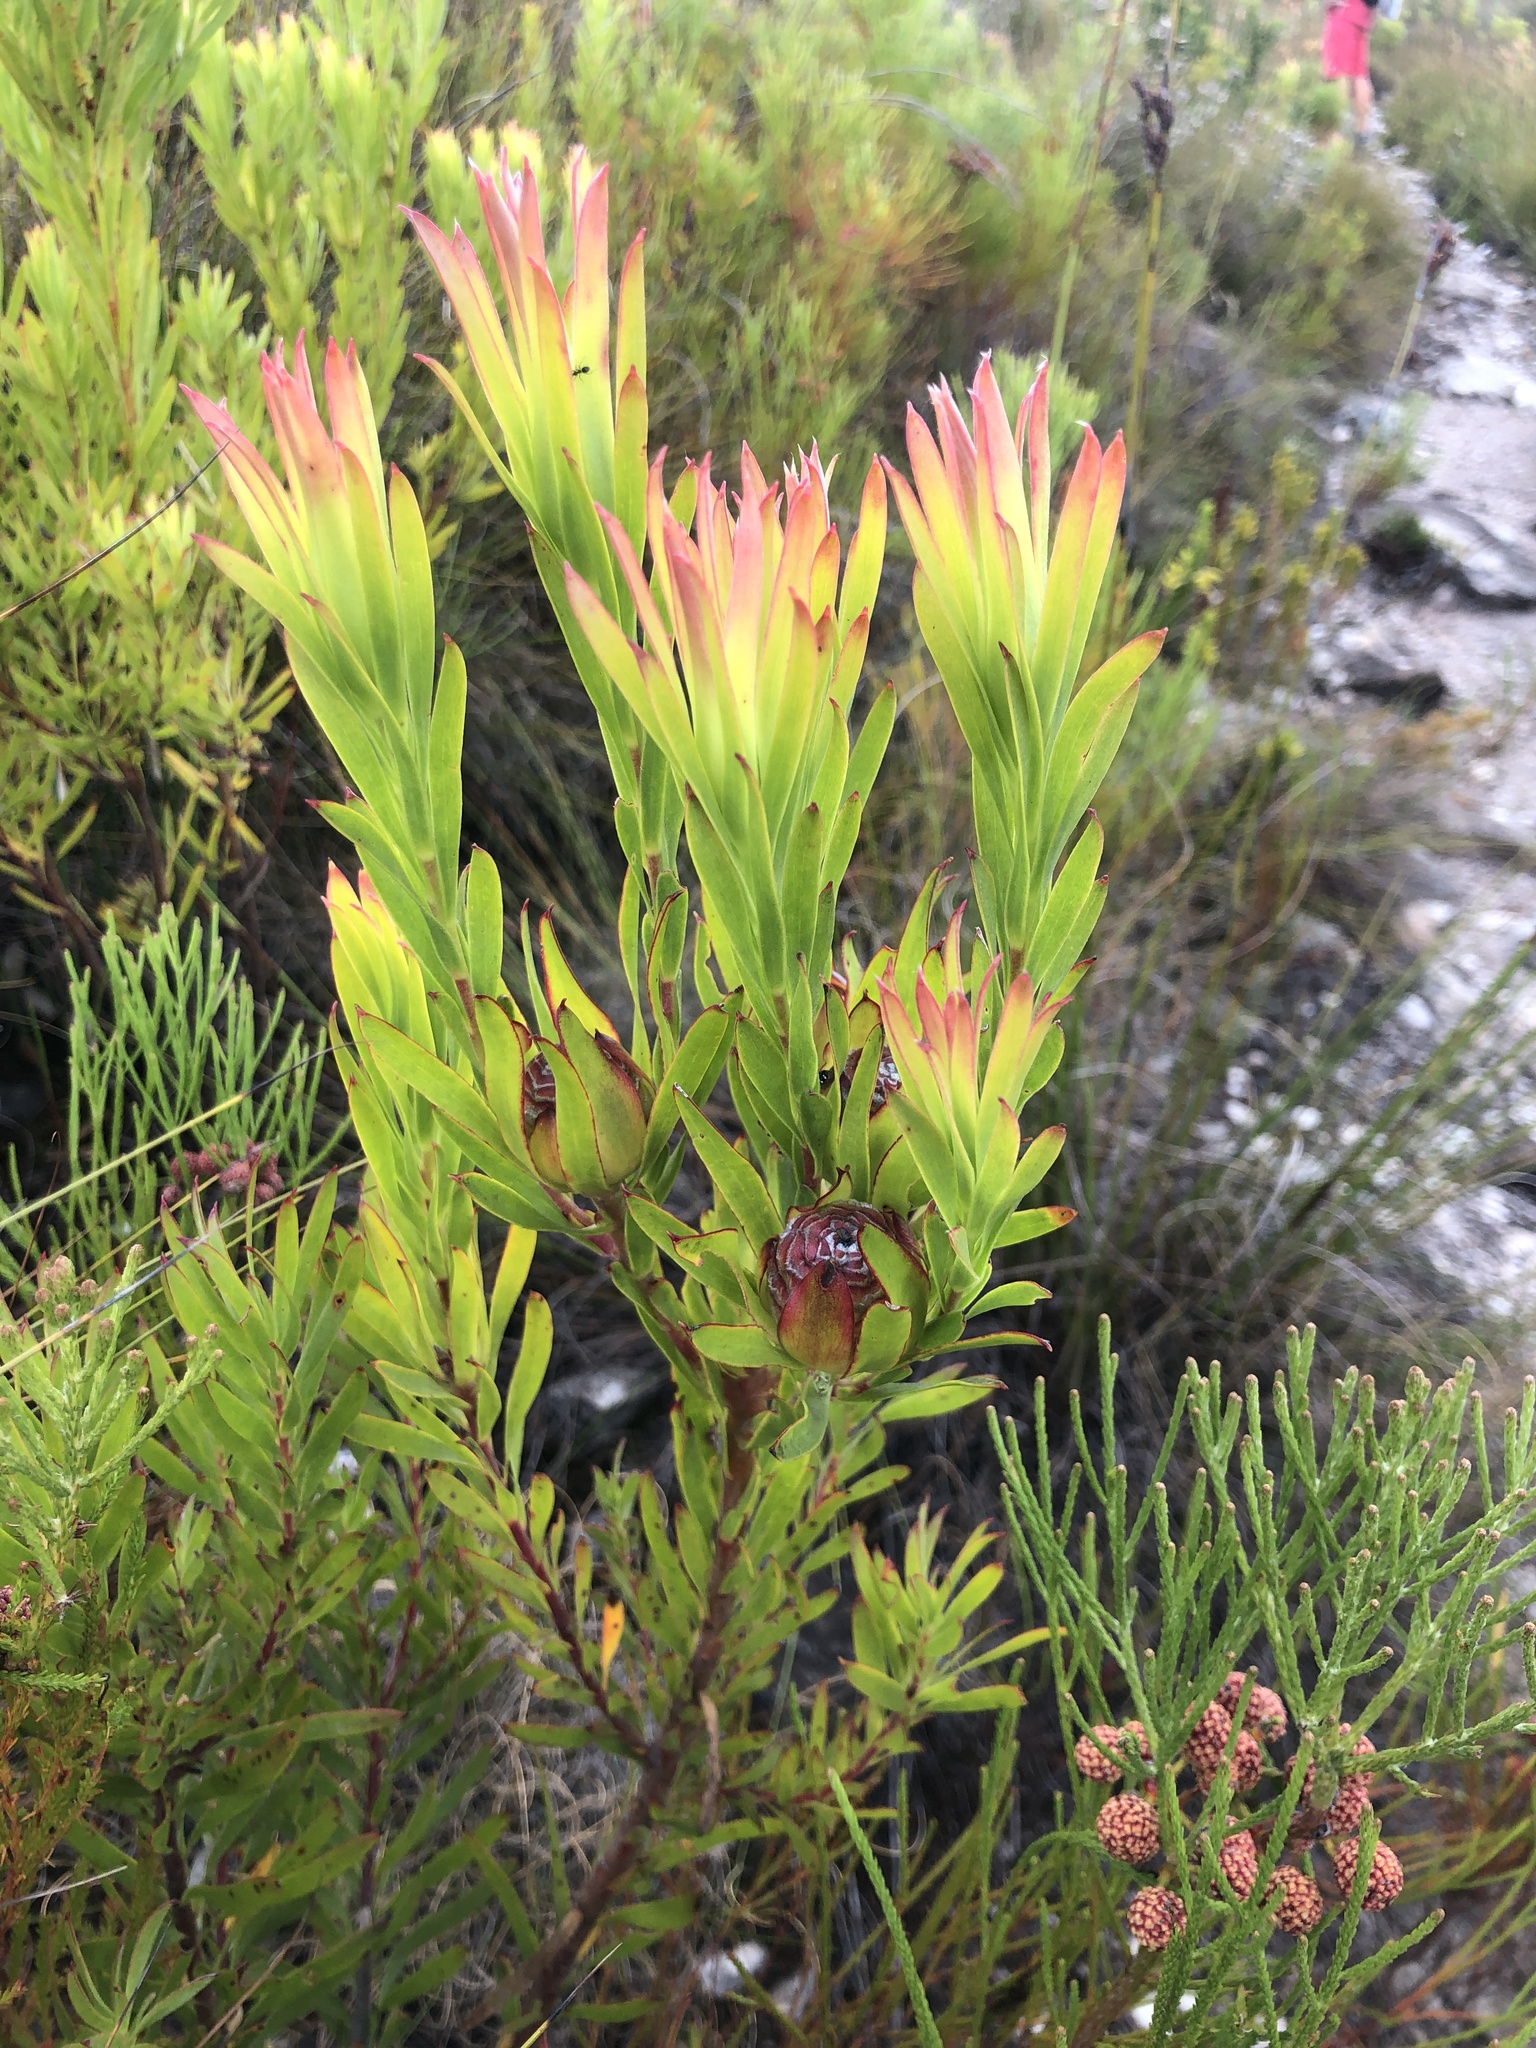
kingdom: Plantae
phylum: Tracheophyta
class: Magnoliopsida
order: Proteales
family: Proteaceae
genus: Leucadendron
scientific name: Leucadendron xanthoconus
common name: Sickle-leaf conebush
